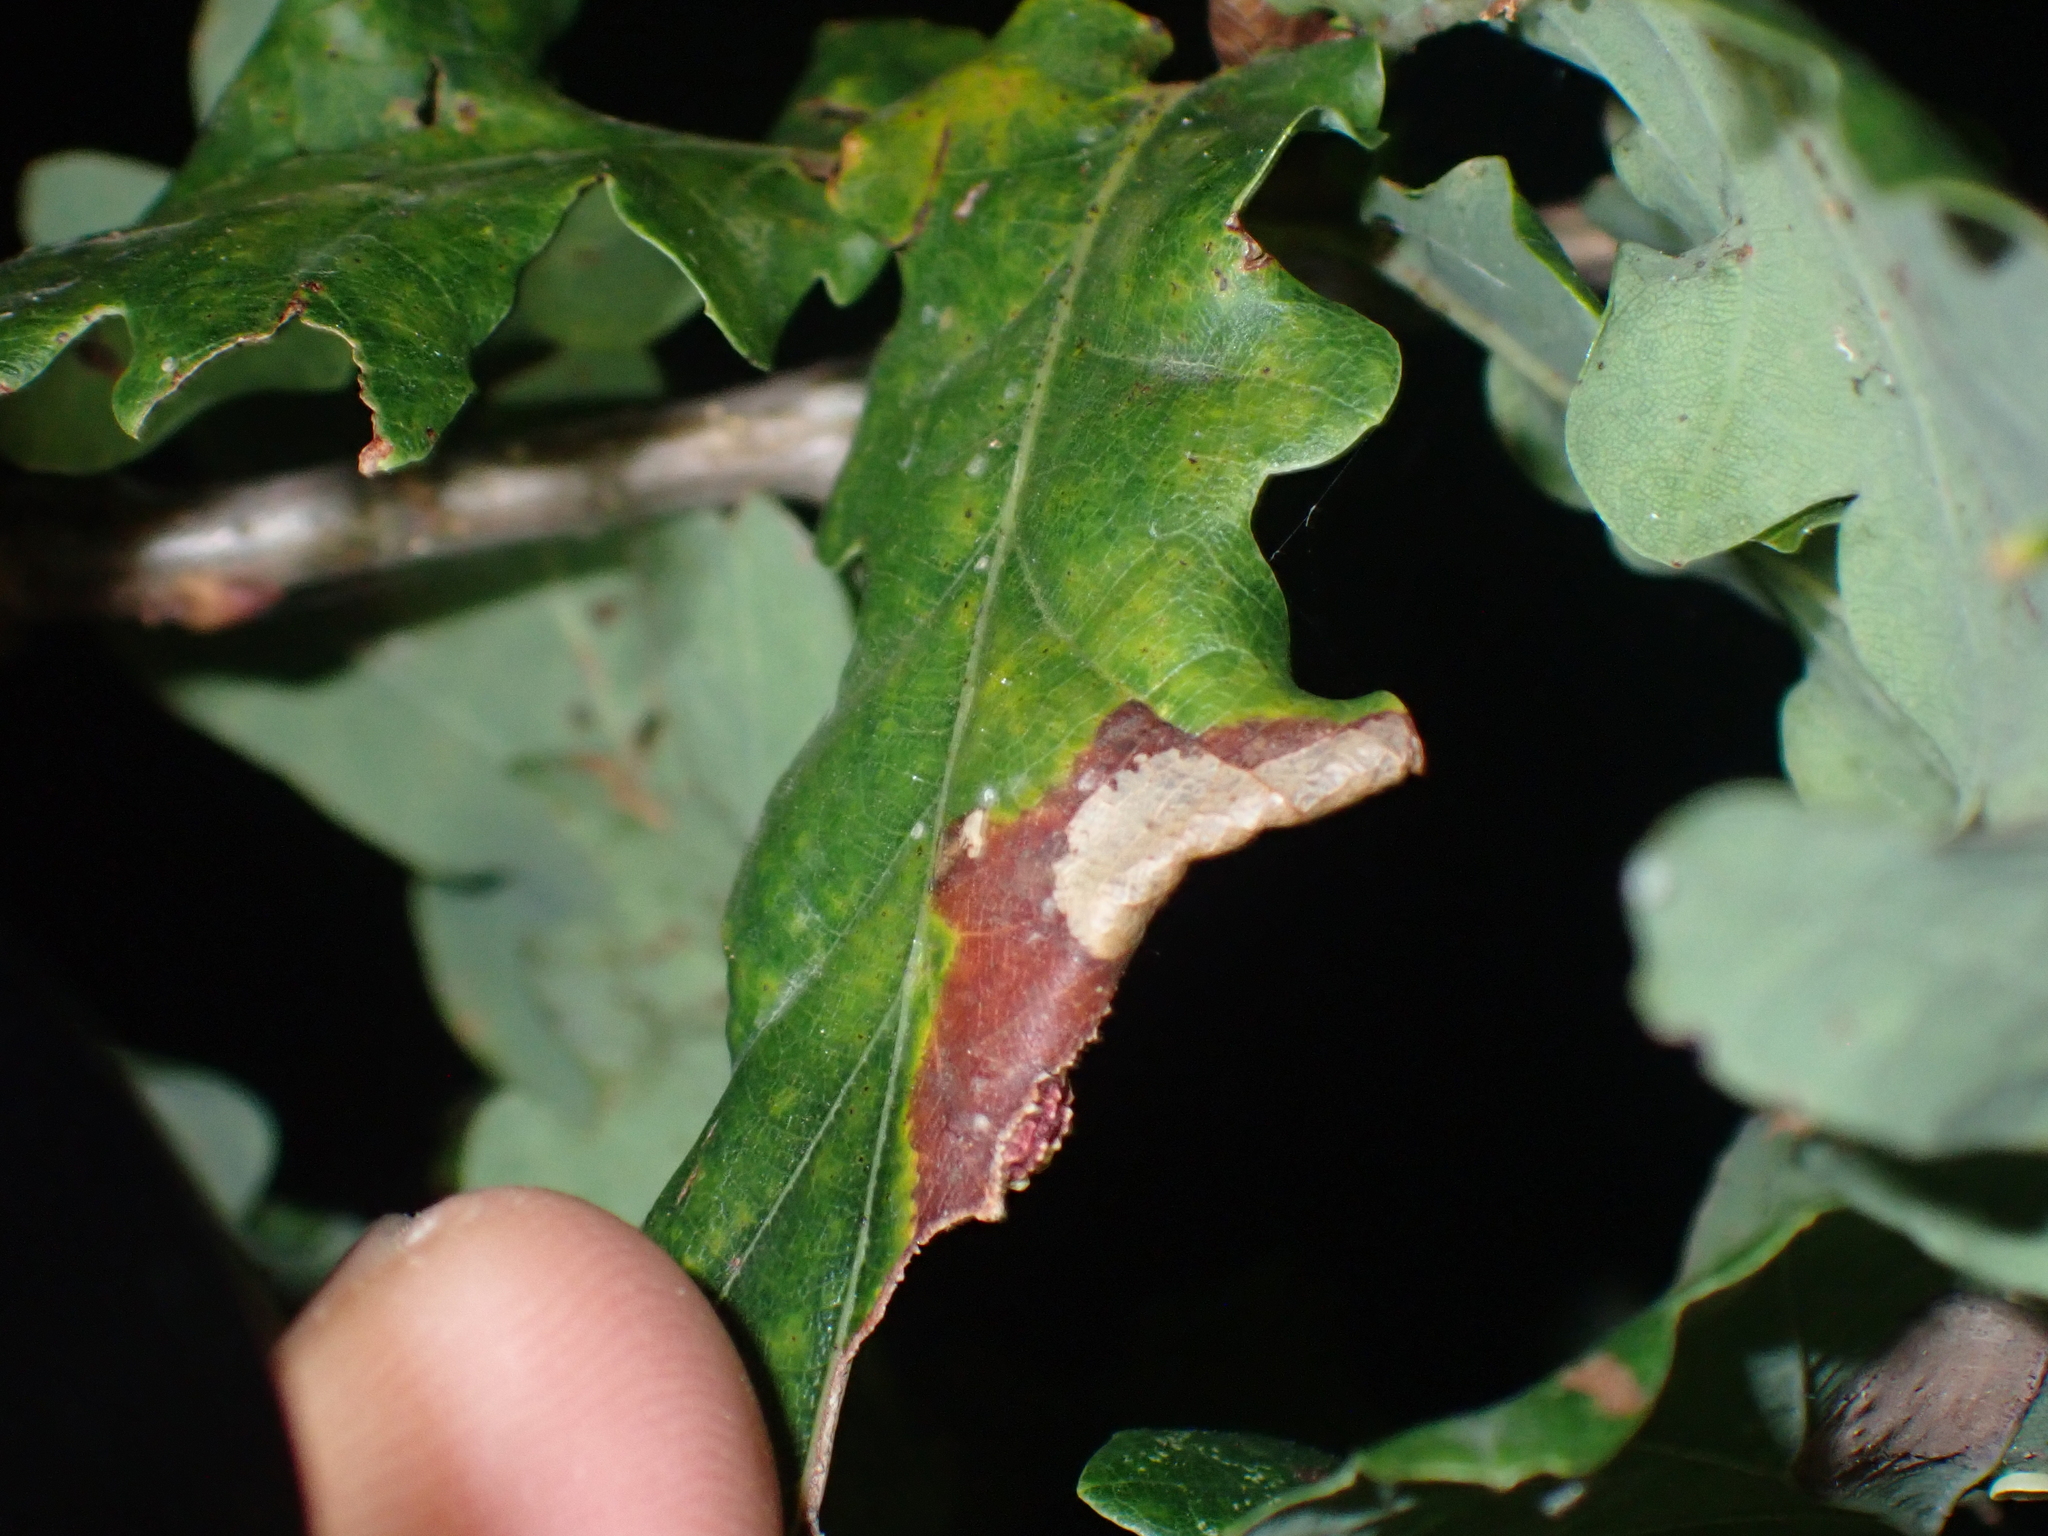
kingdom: Animalia
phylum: Arthropoda
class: Insecta
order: Hymenoptera
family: Cynipidae
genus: Cynips
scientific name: Cynips longiventris
